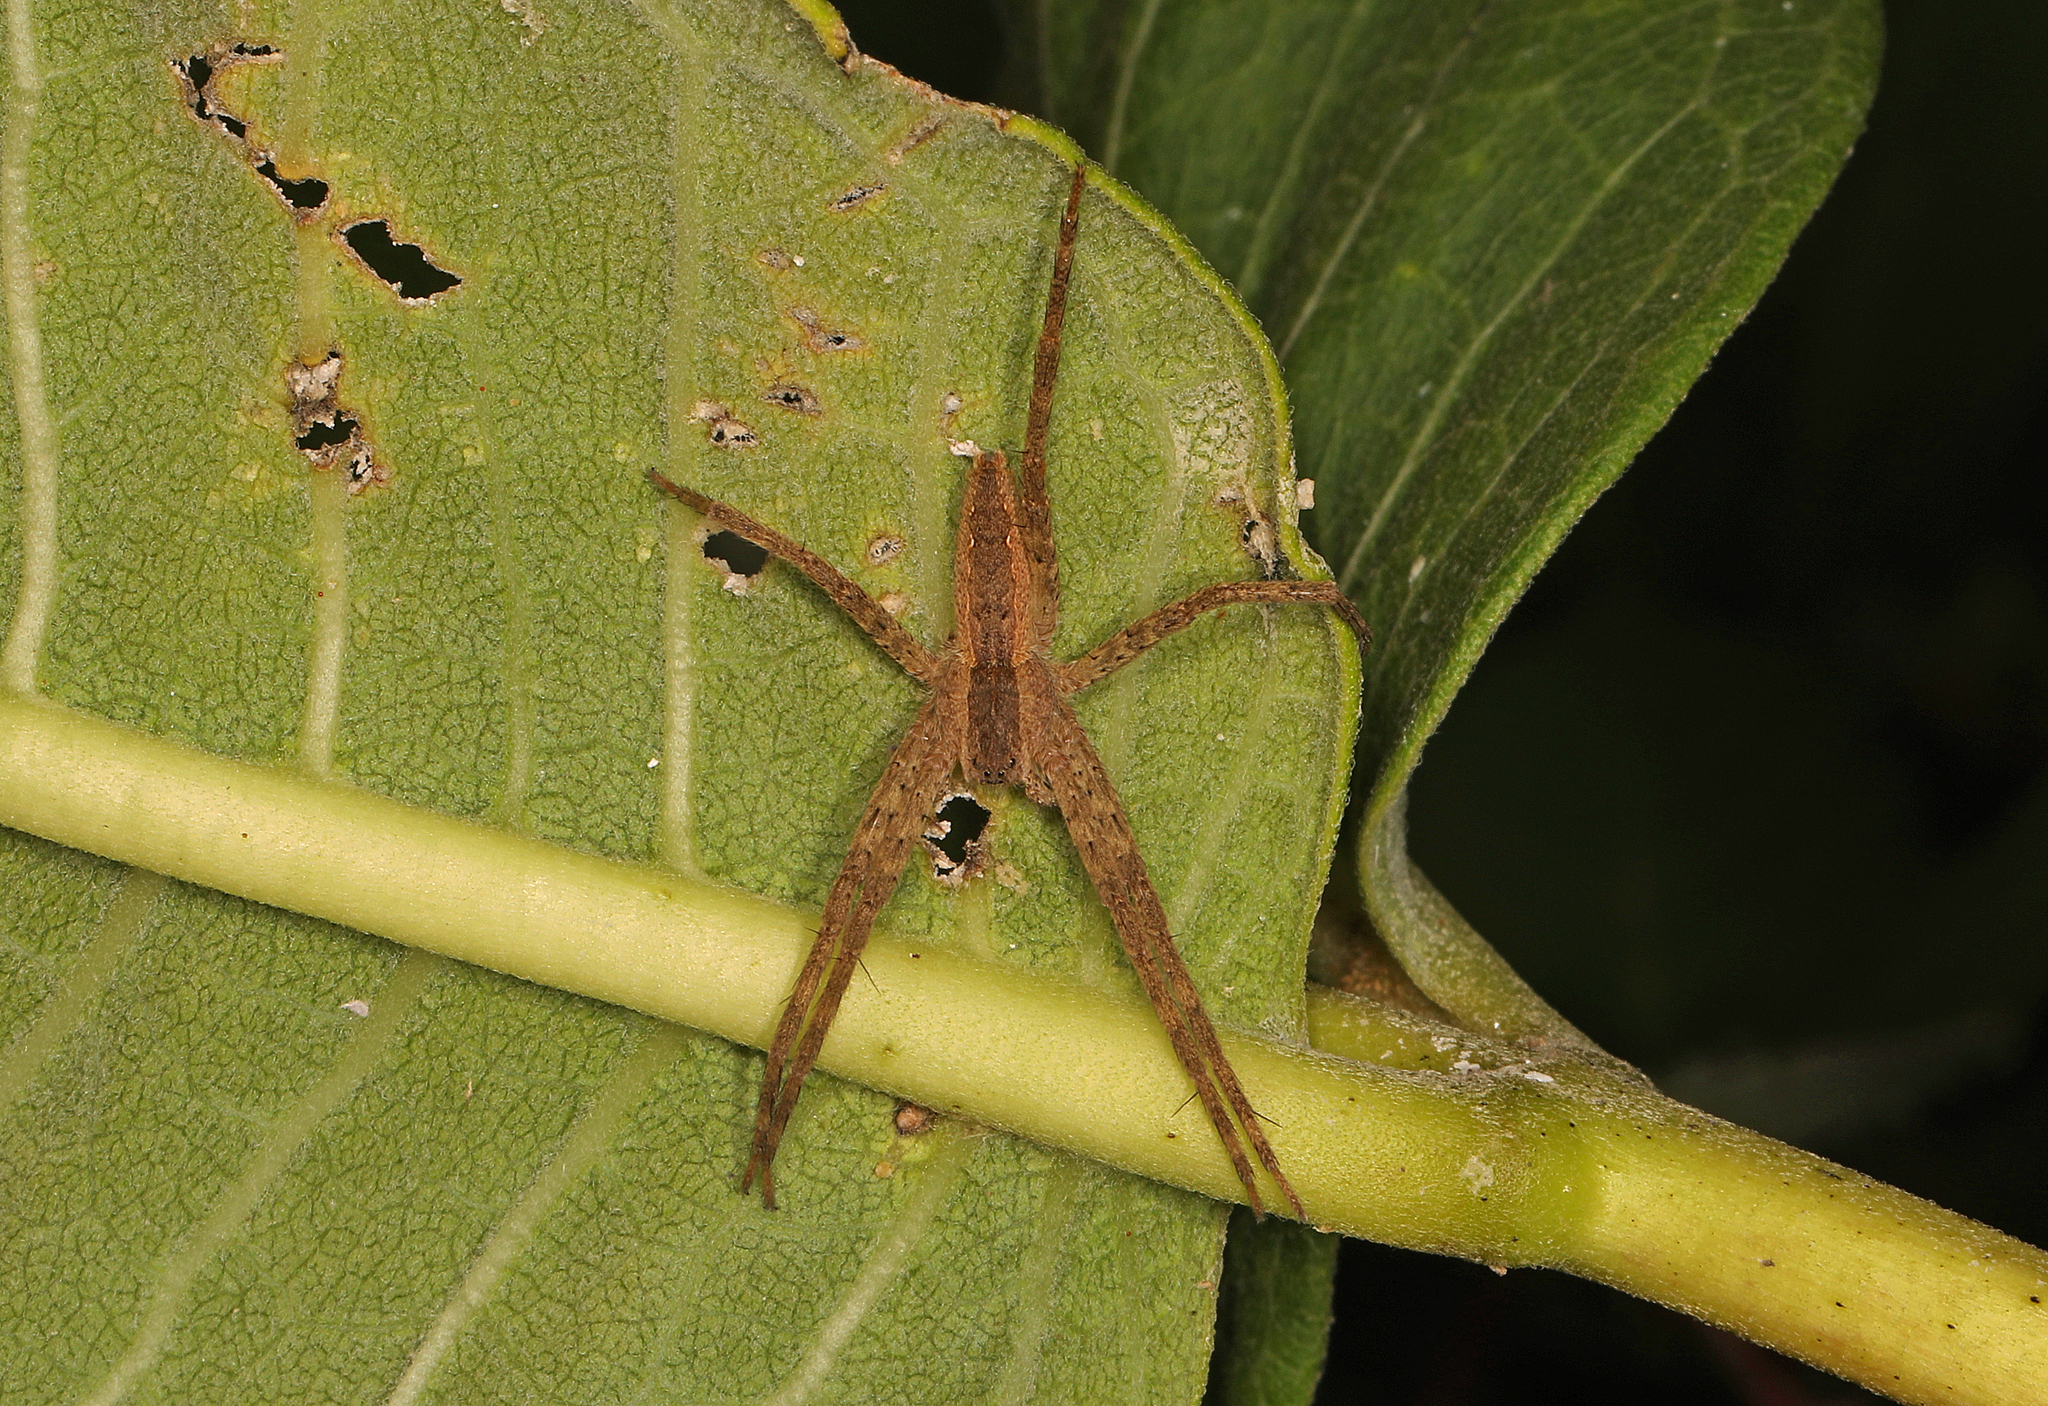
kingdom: Animalia
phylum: Arthropoda
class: Arachnida
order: Araneae
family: Pisauridae
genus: Pisaurina
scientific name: Pisaurina mira
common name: American nursery web spider
